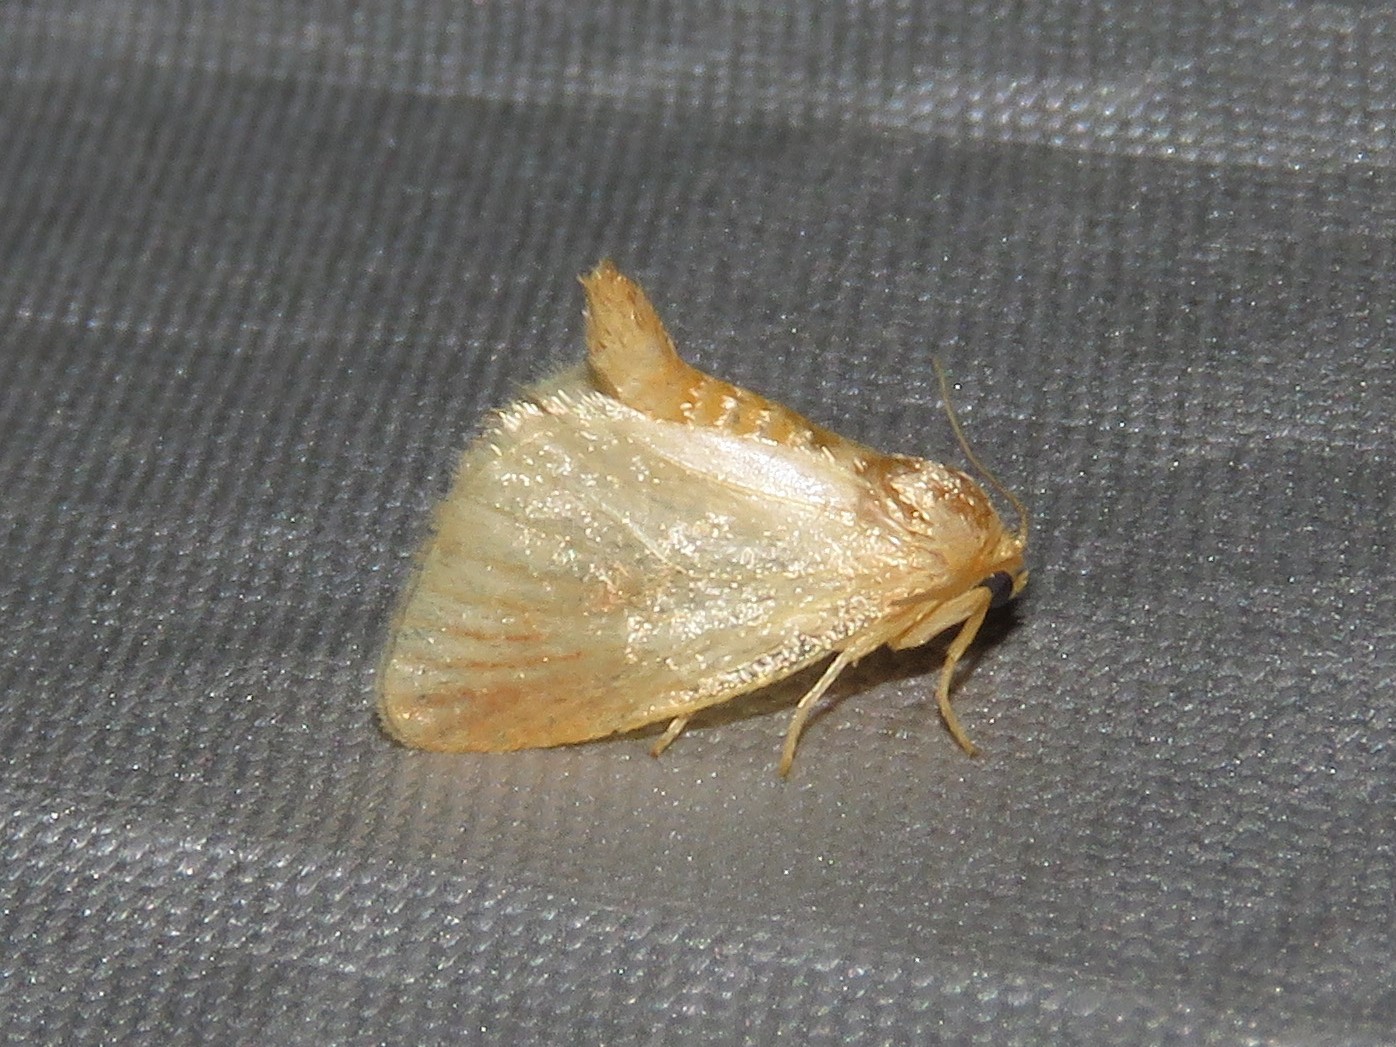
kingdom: Animalia
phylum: Arthropoda
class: Insecta
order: Lepidoptera
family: Limacodidae
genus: Tortricidia
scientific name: Tortricidia testacea
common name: Early button slug moth
